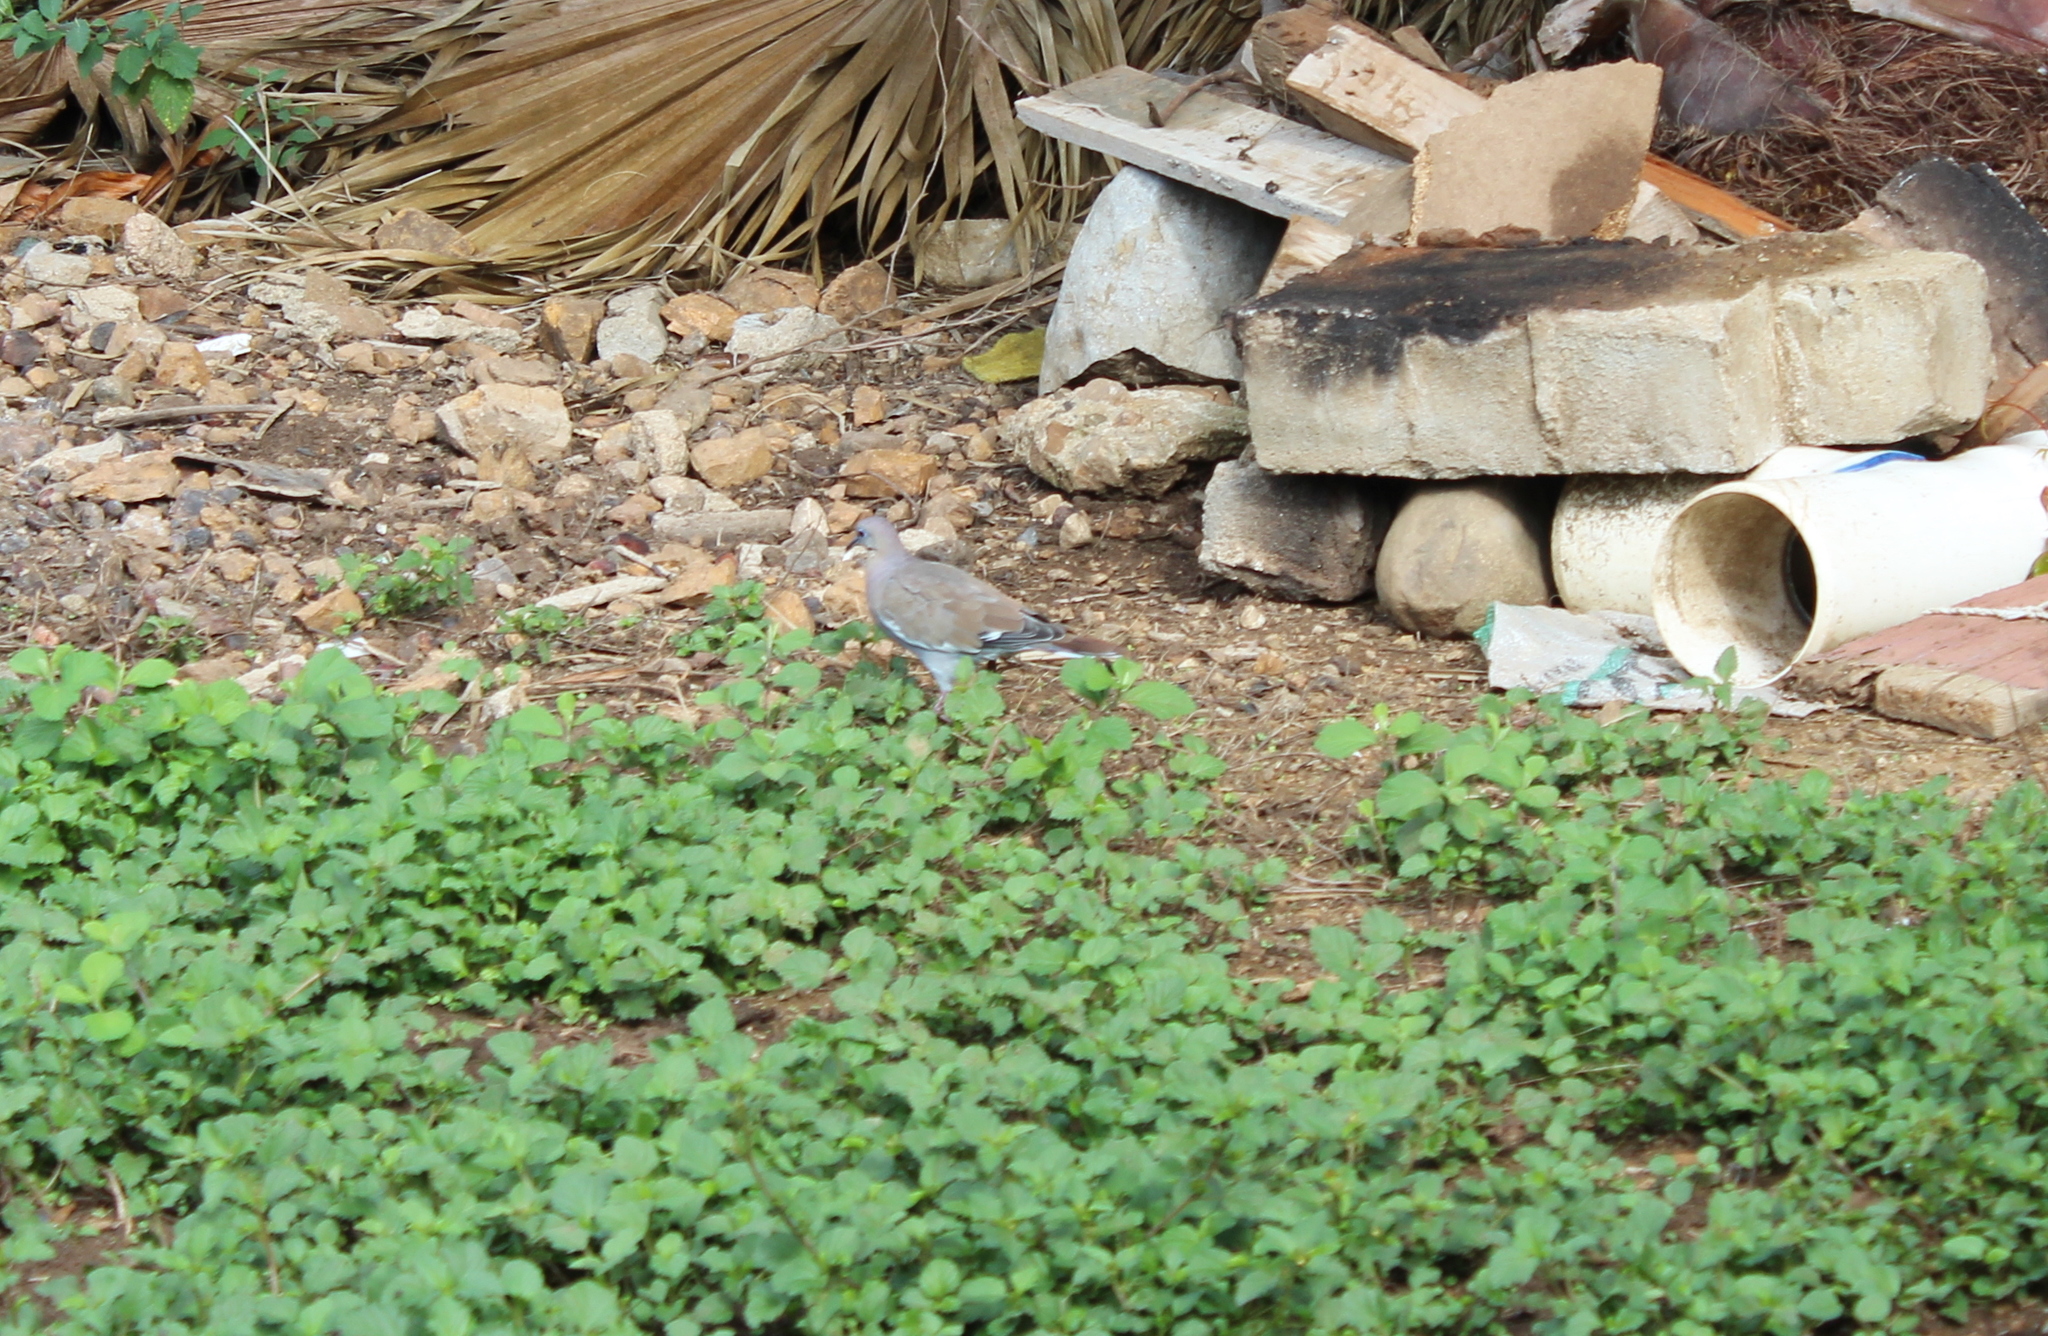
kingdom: Animalia
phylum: Chordata
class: Aves
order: Columbiformes
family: Columbidae
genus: Zenaida
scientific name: Zenaida asiatica
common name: White-winged dove
